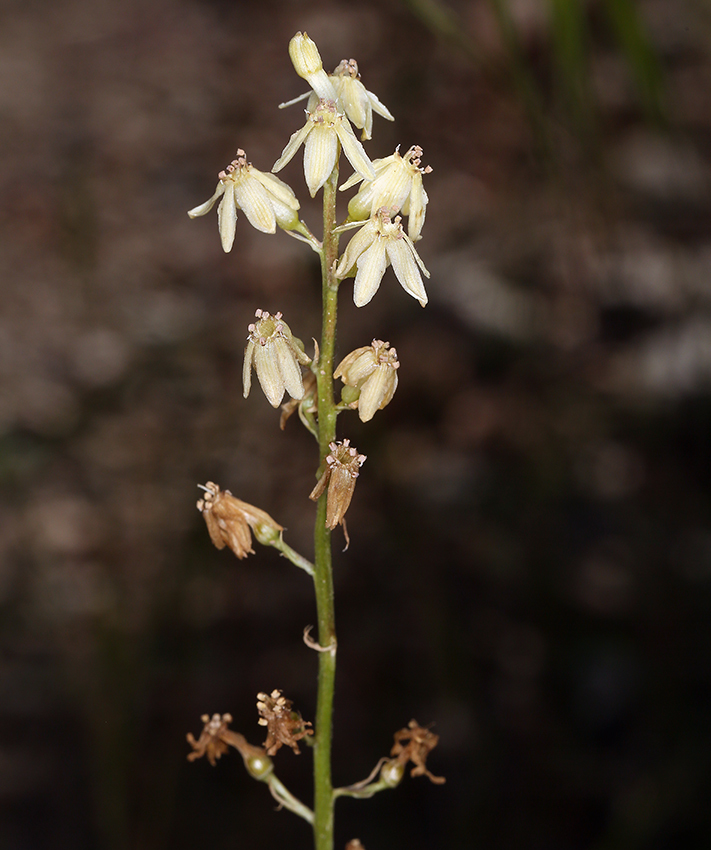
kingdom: Plantae
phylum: Tracheophyta
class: Liliopsida
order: Asparagales
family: Tecophilaeaceae
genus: Odontostomum
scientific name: Odontostomum hartwegii
